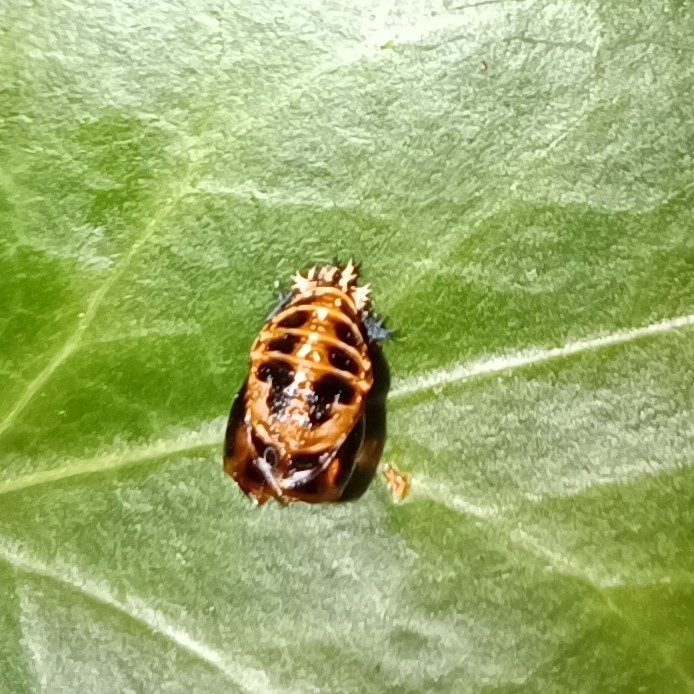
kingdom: Animalia
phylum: Arthropoda
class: Insecta
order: Coleoptera
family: Coccinellidae
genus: Harmonia
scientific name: Harmonia axyridis
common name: Harlequin ladybird
